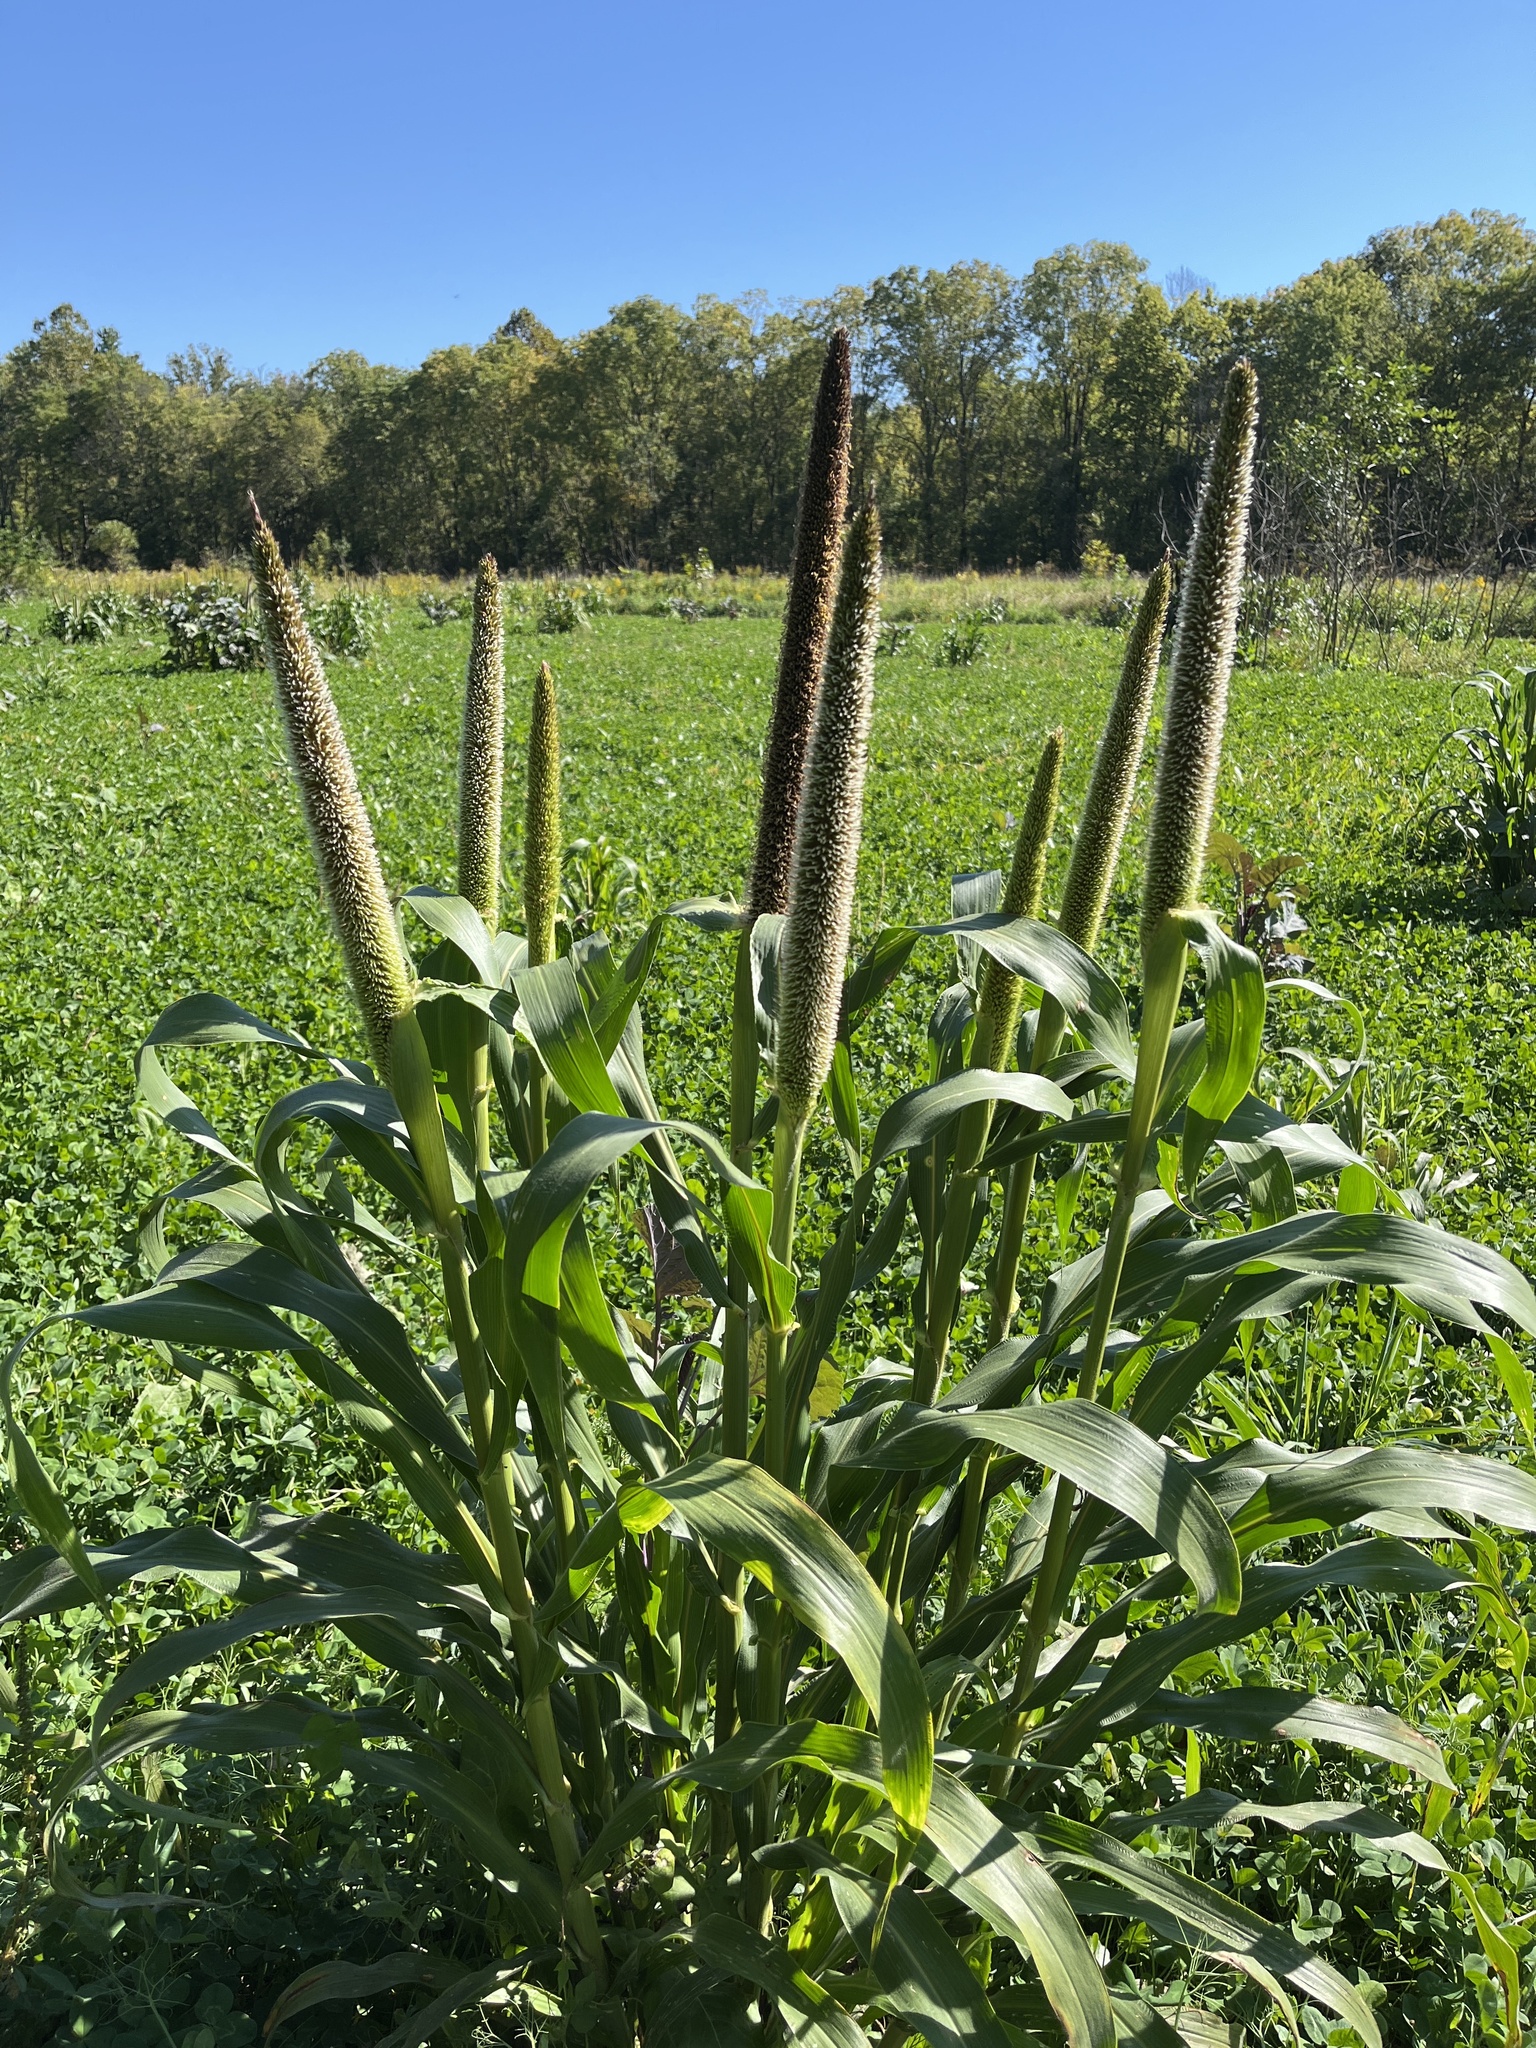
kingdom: Plantae
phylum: Tracheophyta
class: Liliopsida
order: Poales
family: Poaceae
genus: Cenchrus
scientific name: Cenchrus americanus
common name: Pearl millet
